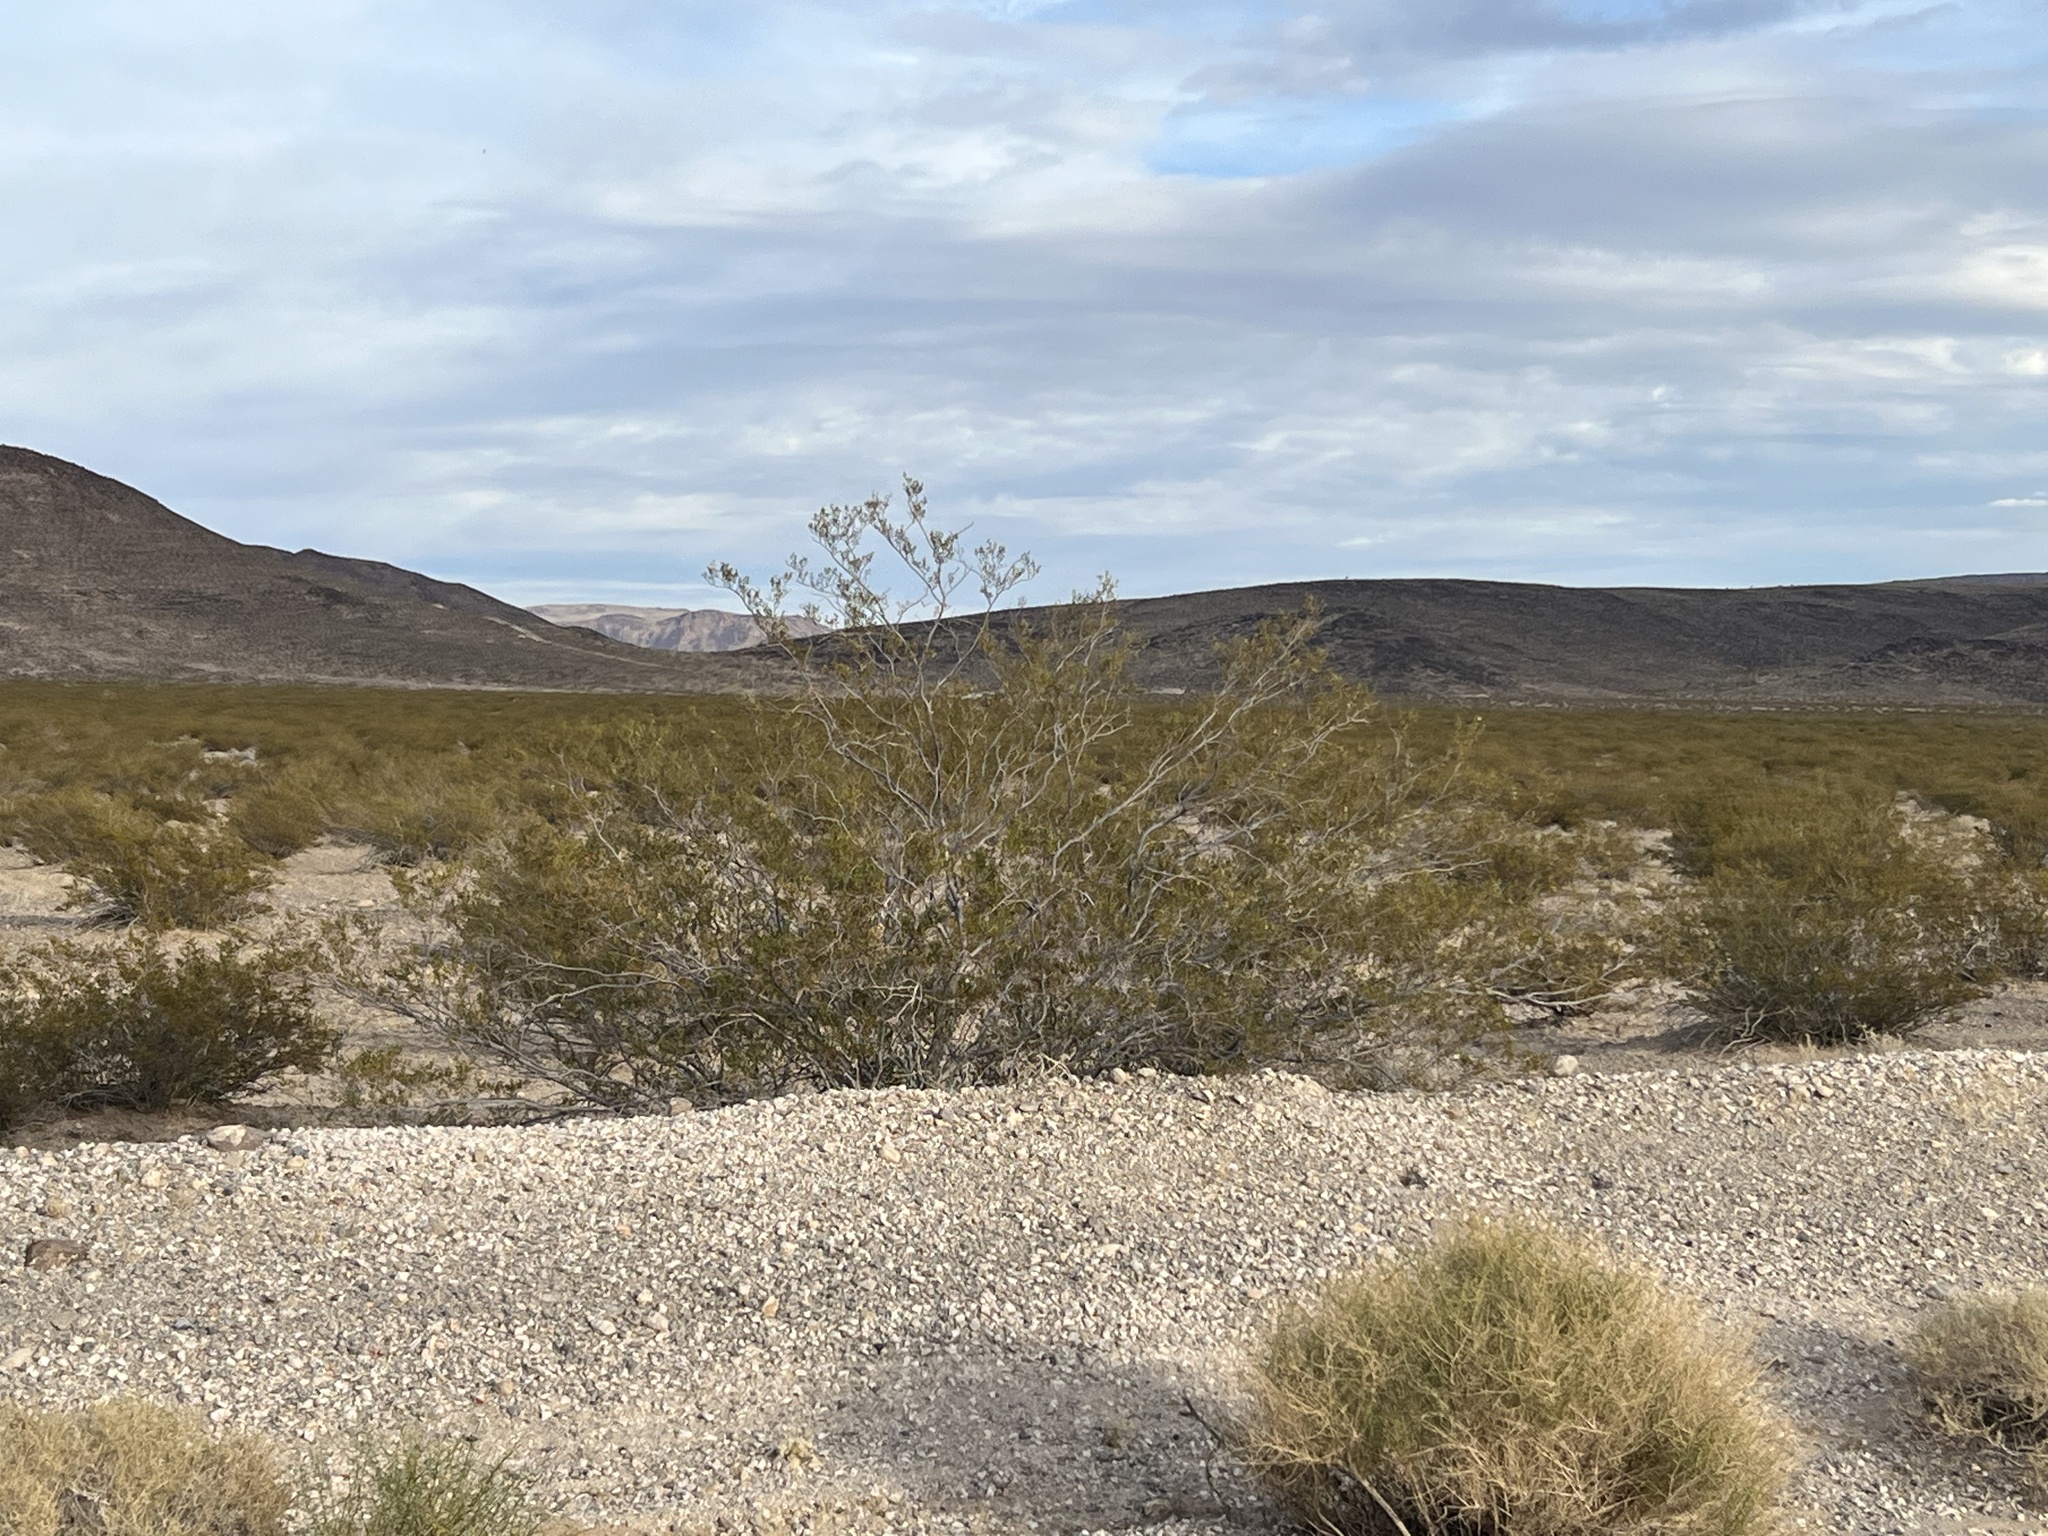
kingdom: Plantae
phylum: Tracheophyta
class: Magnoliopsida
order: Zygophyllales
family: Zygophyllaceae
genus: Larrea
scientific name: Larrea tridentata
